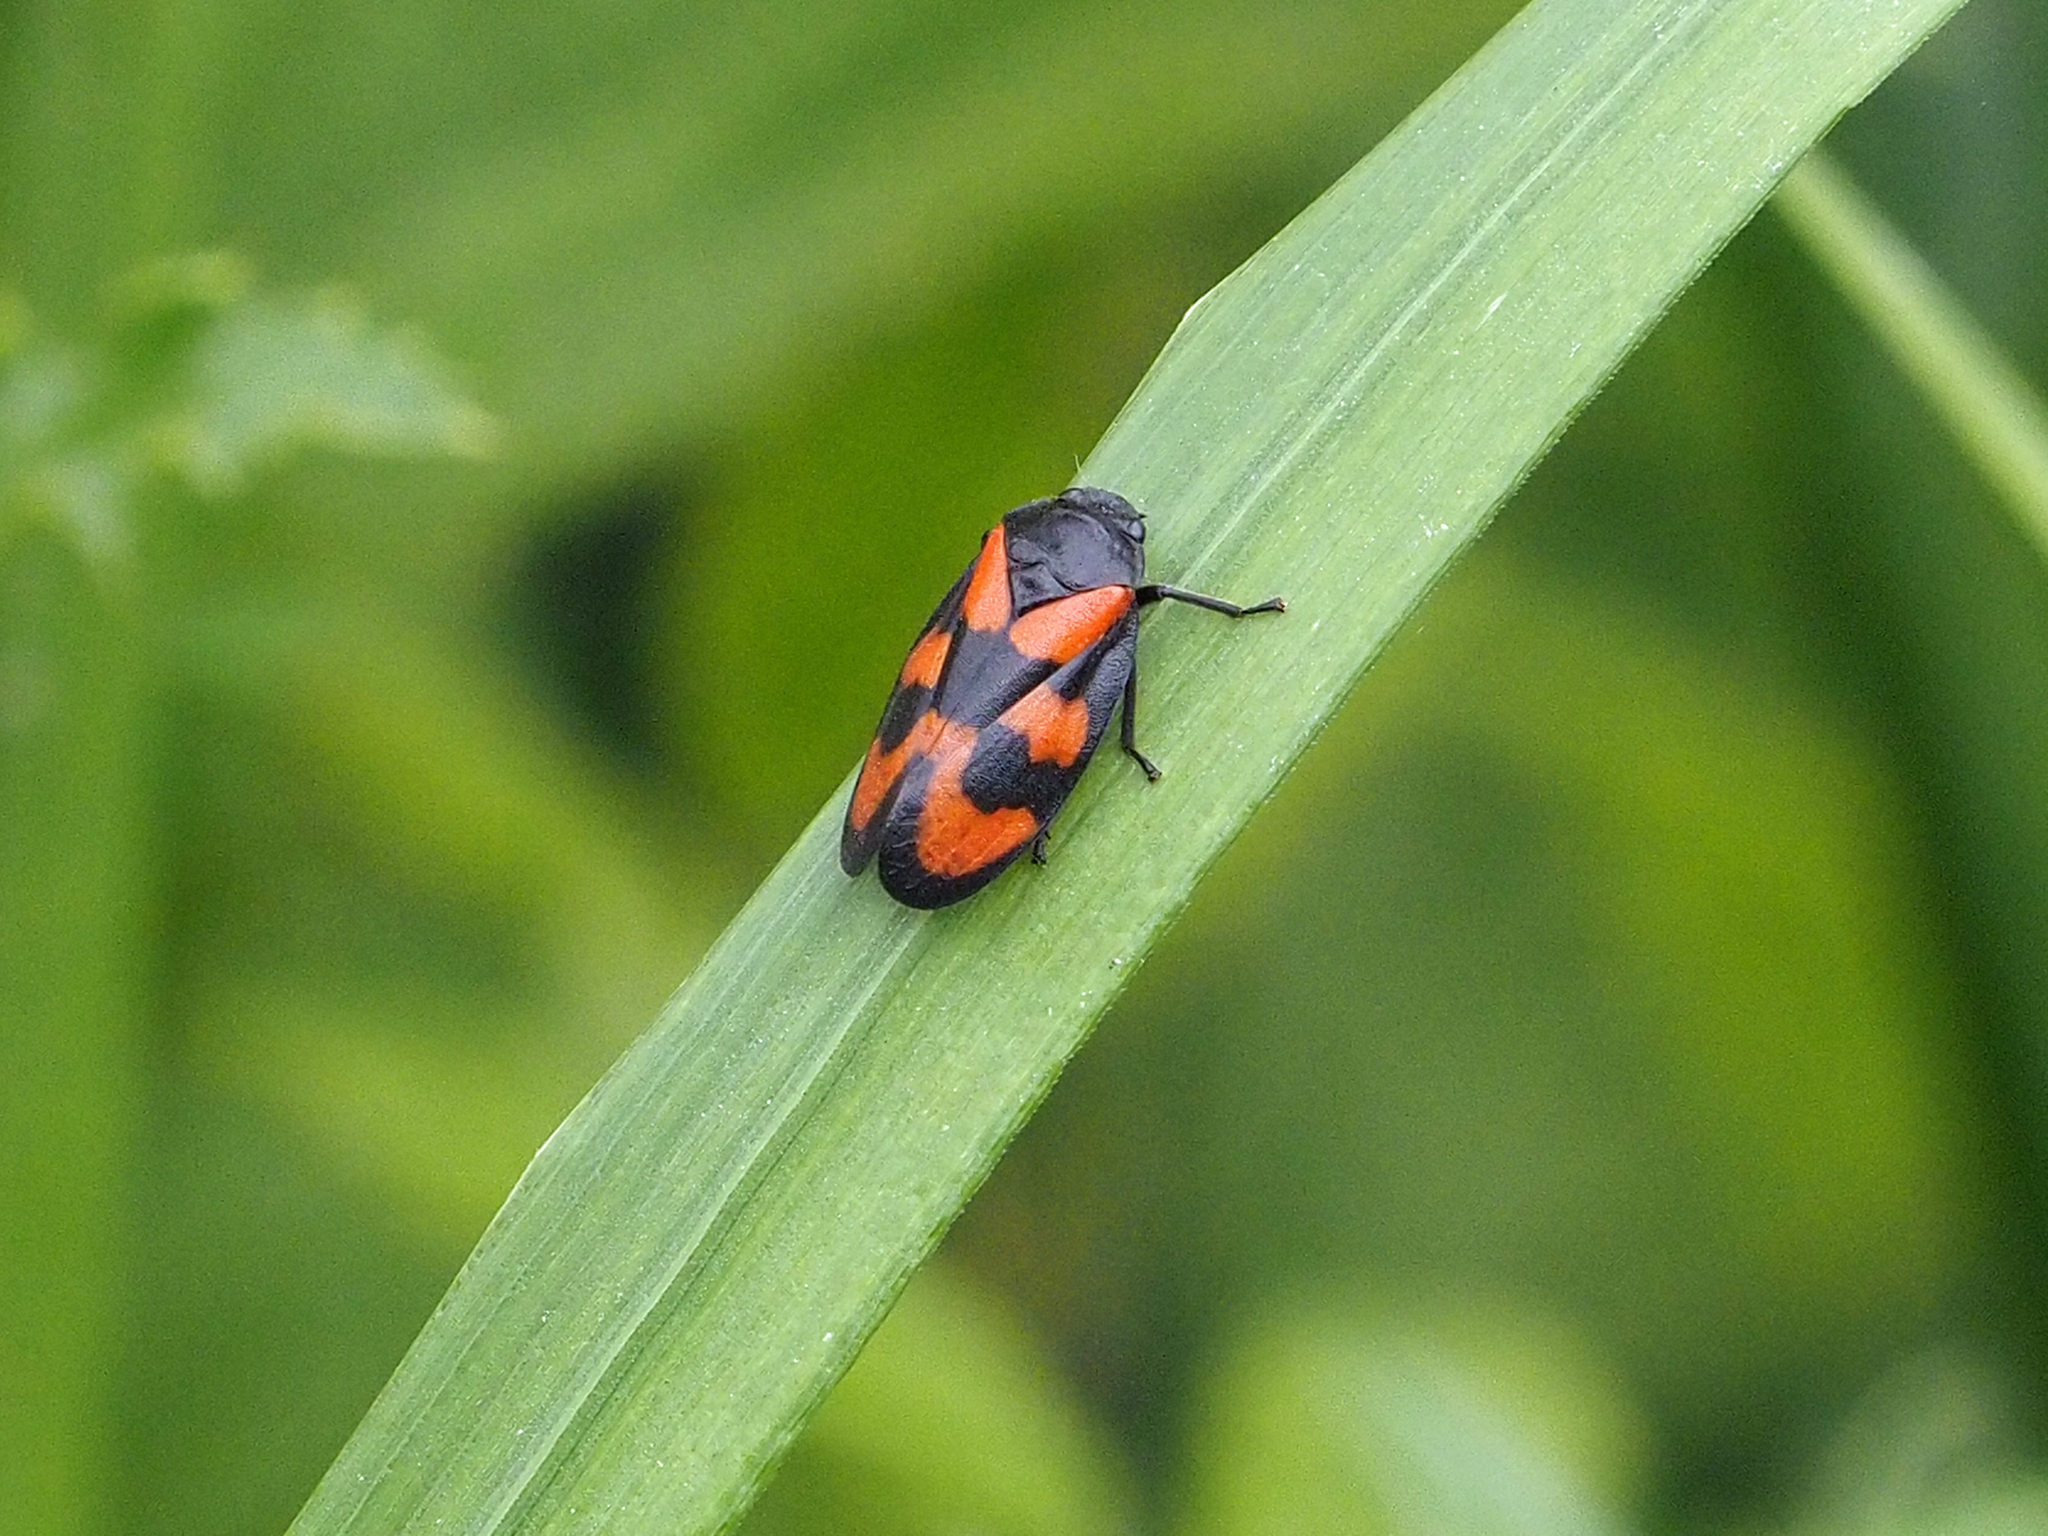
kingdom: Animalia
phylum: Arthropoda
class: Insecta
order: Hemiptera
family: Cercopidae
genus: Cercopis
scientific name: Cercopis vulnerata
